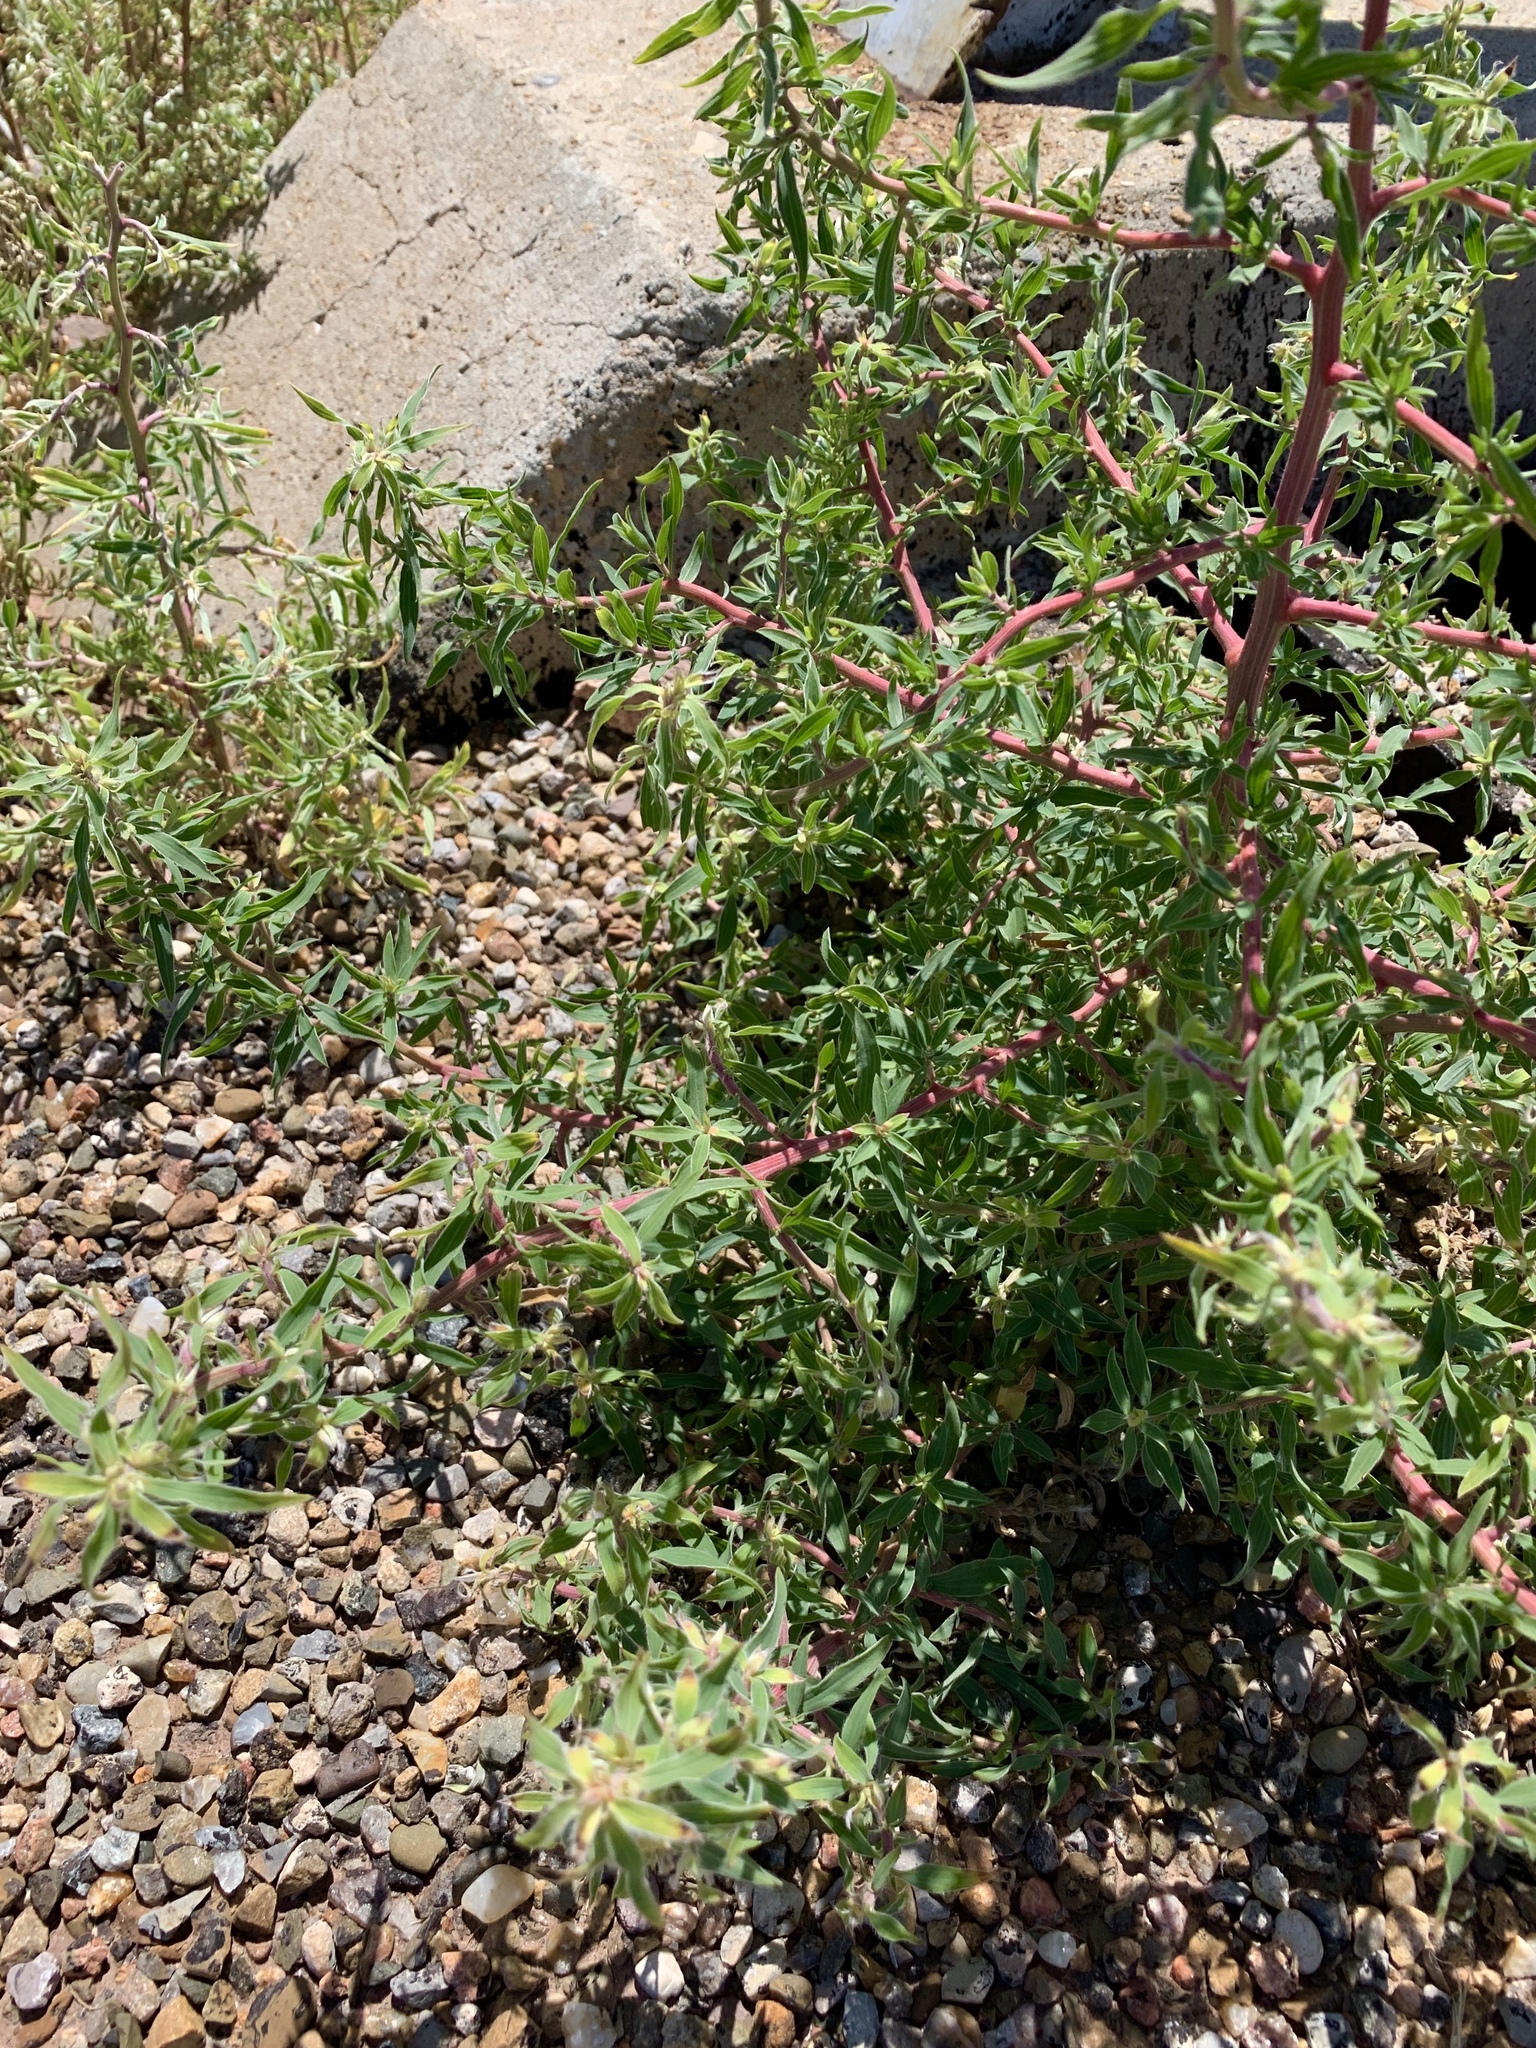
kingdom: Plantae
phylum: Tracheophyta
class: Magnoliopsida
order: Caryophyllales
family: Amaranthaceae
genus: Bassia
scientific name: Bassia scoparia
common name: Belvedere
